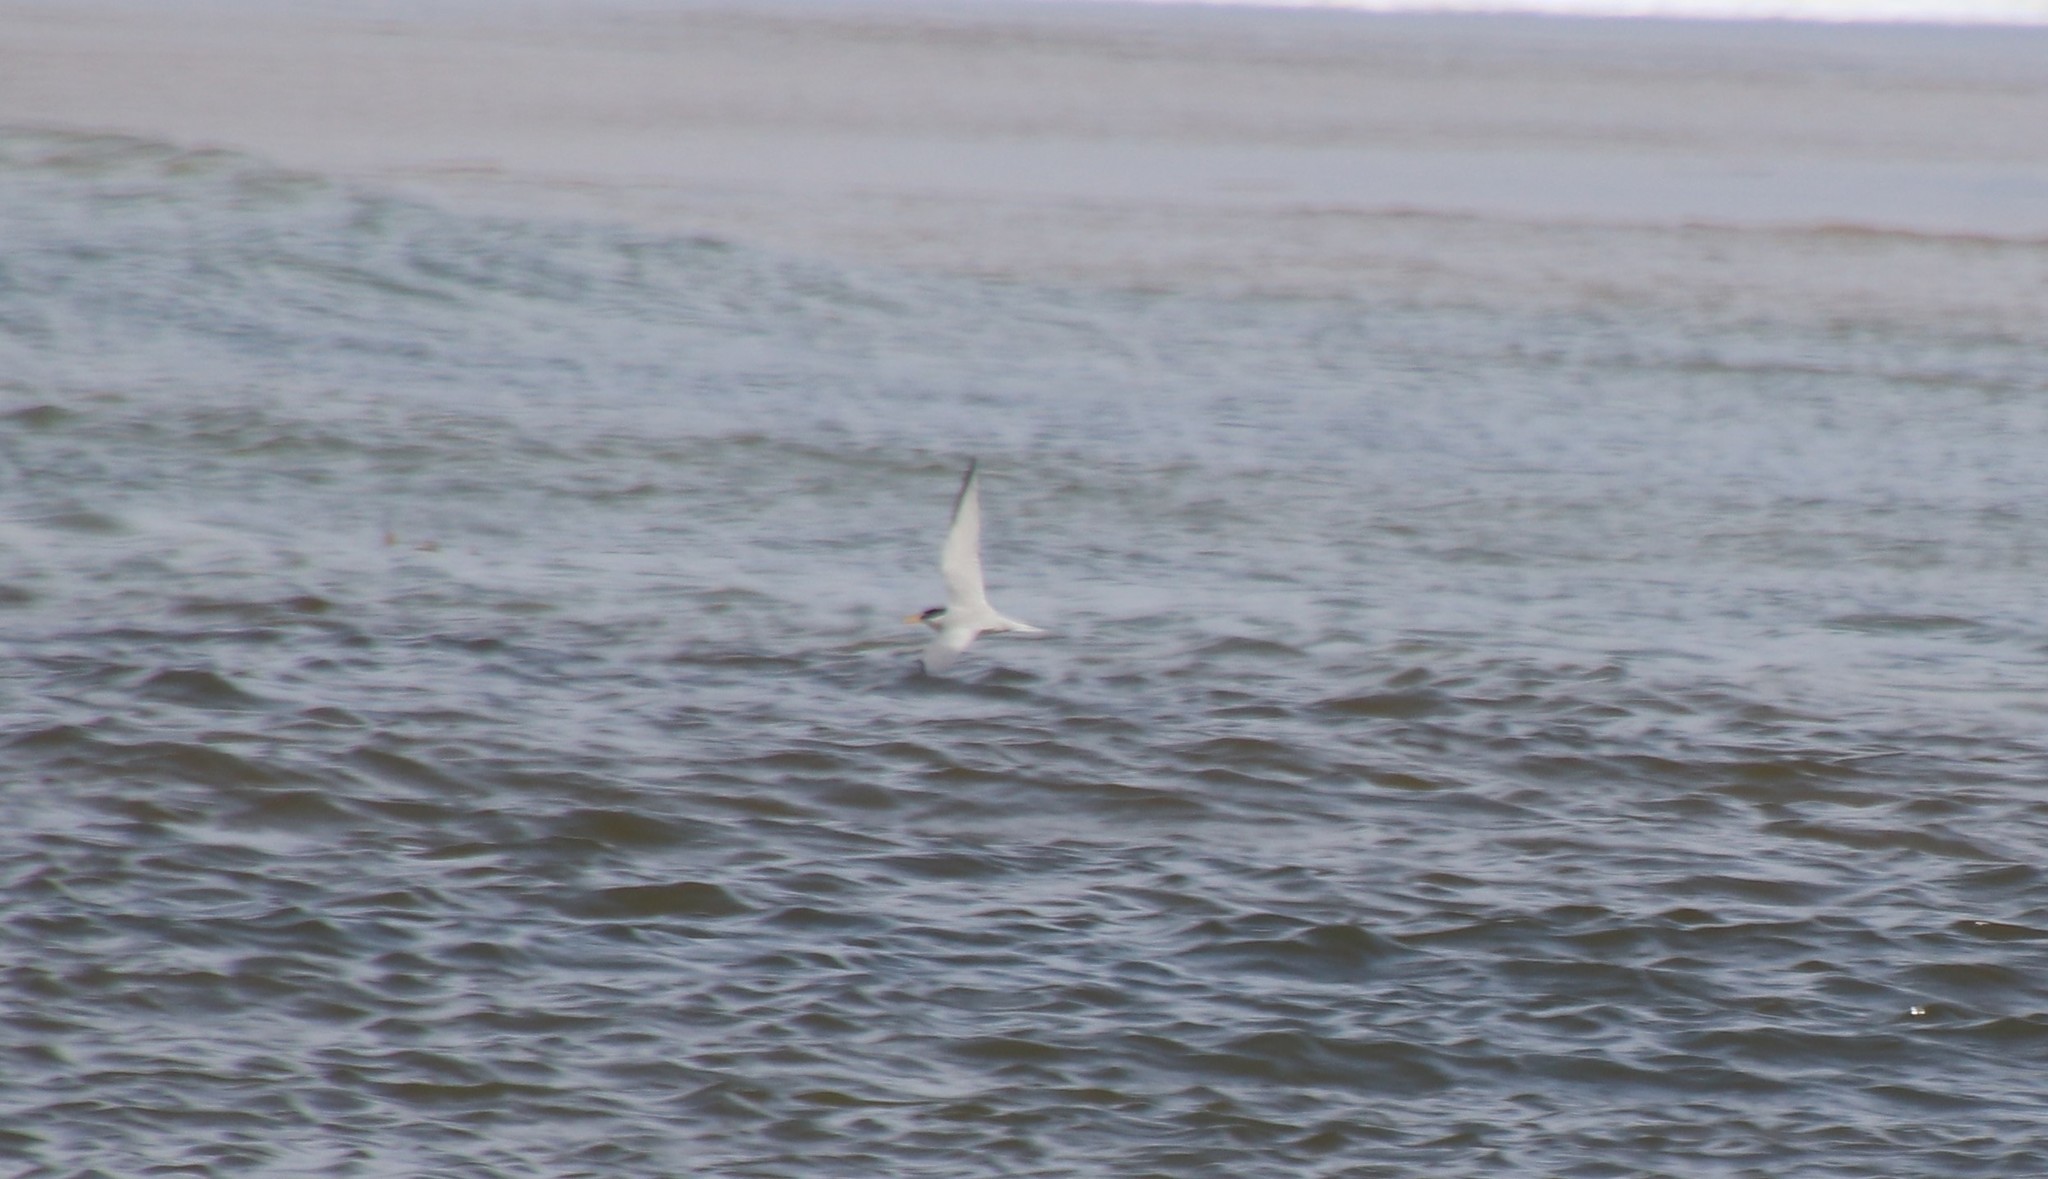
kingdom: Animalia
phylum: Chordata
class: Aves
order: Charadriiformes
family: Laridae
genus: Sternula
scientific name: Sternula antillarum
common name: Least tern
